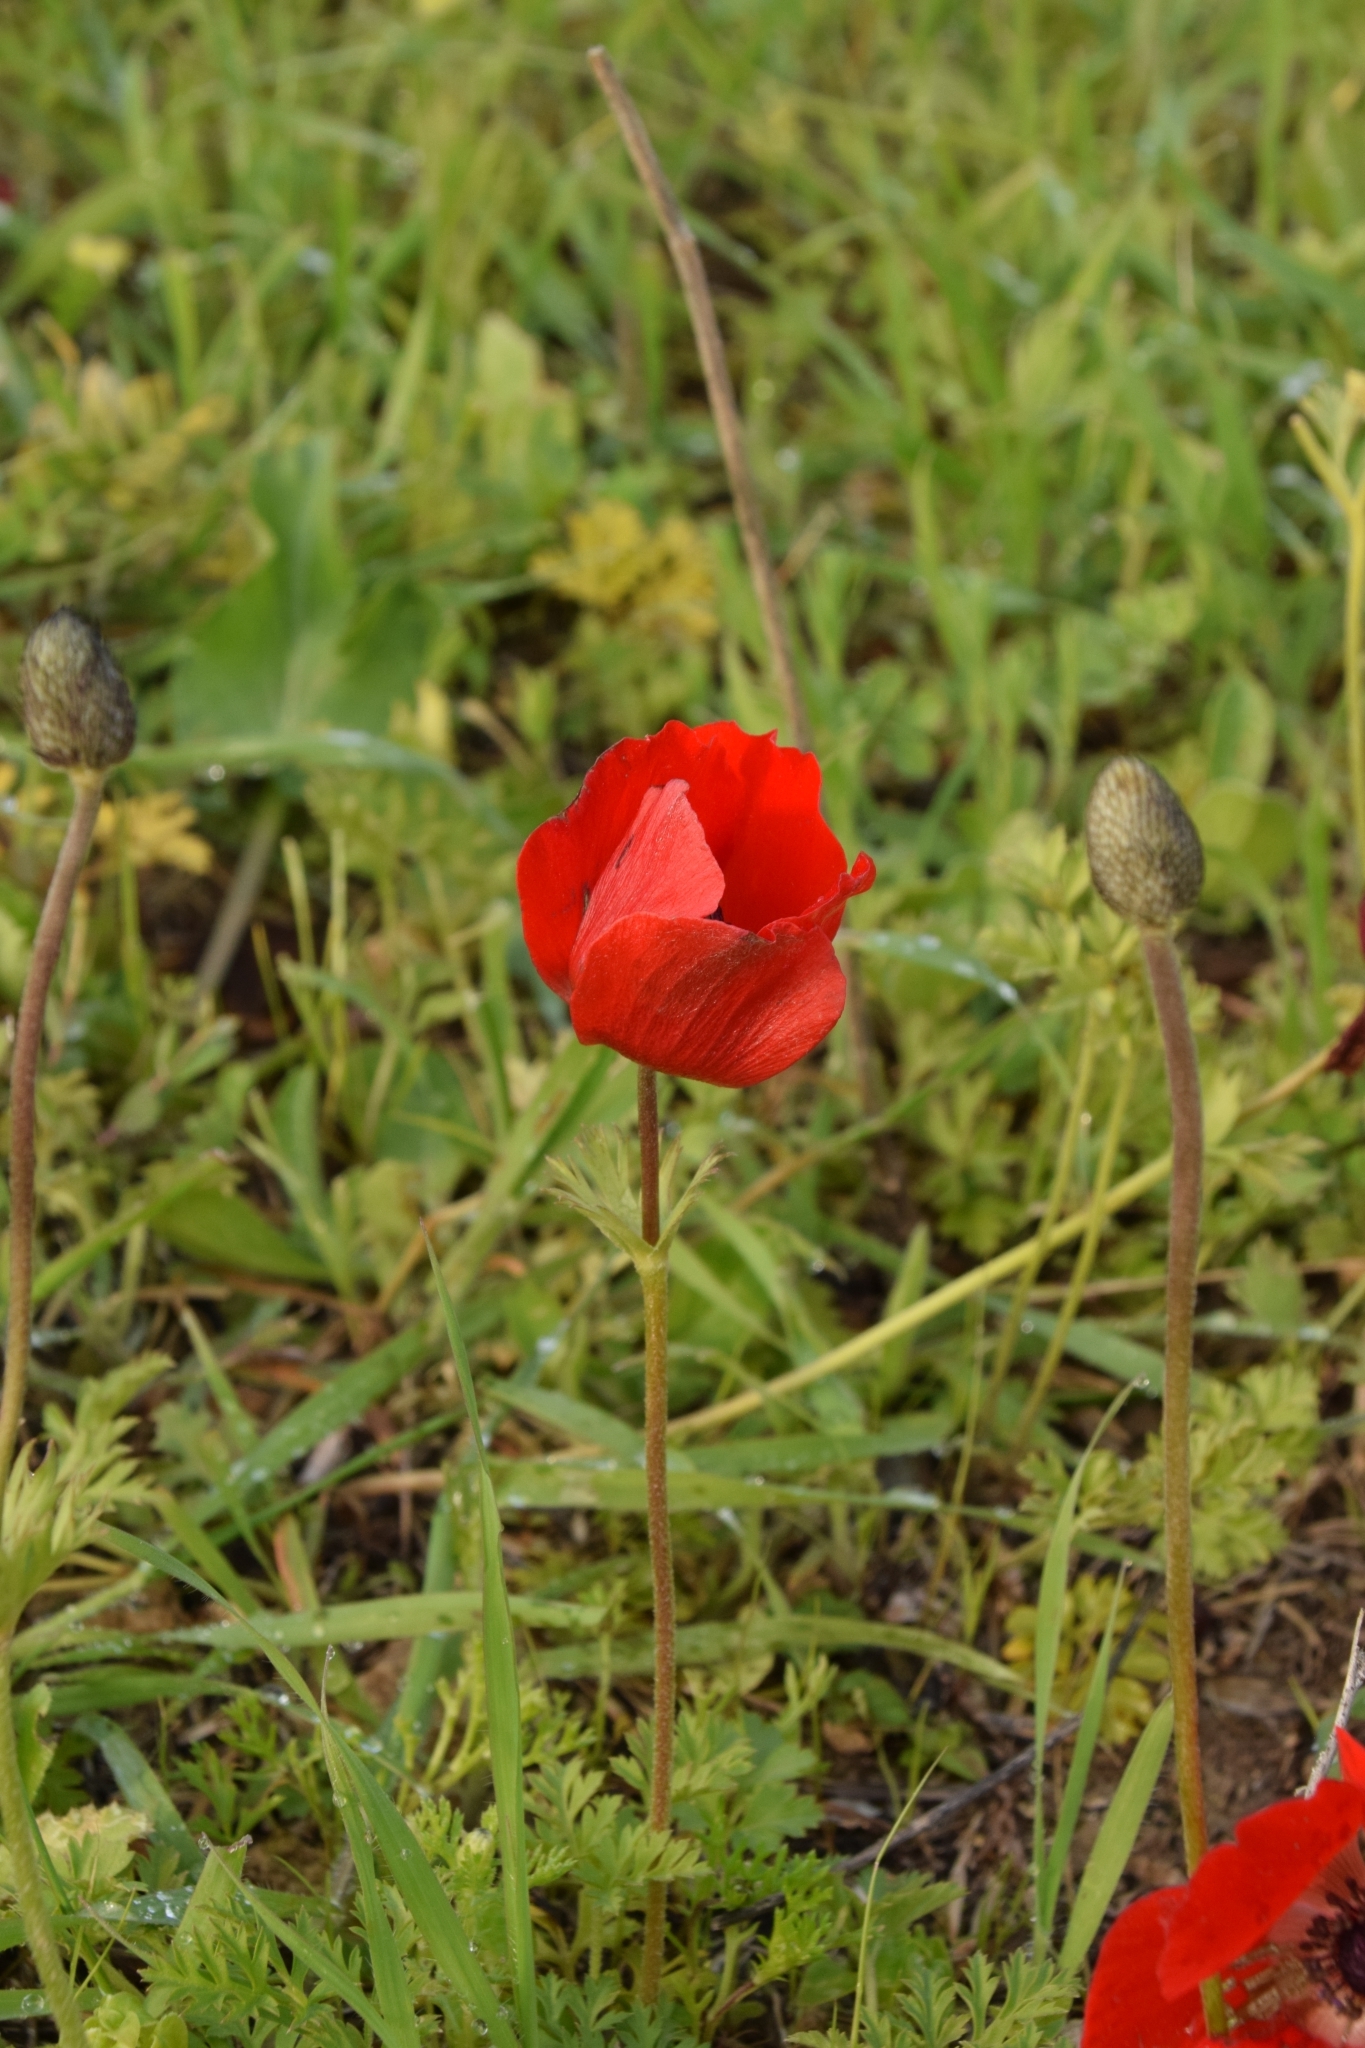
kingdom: Plantae
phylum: Tracheophyta
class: Magnoliopsida
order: Ranunculales
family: Ranunculaceae
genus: Anemone
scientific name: Anemone coronaria
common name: Poppy anemone
